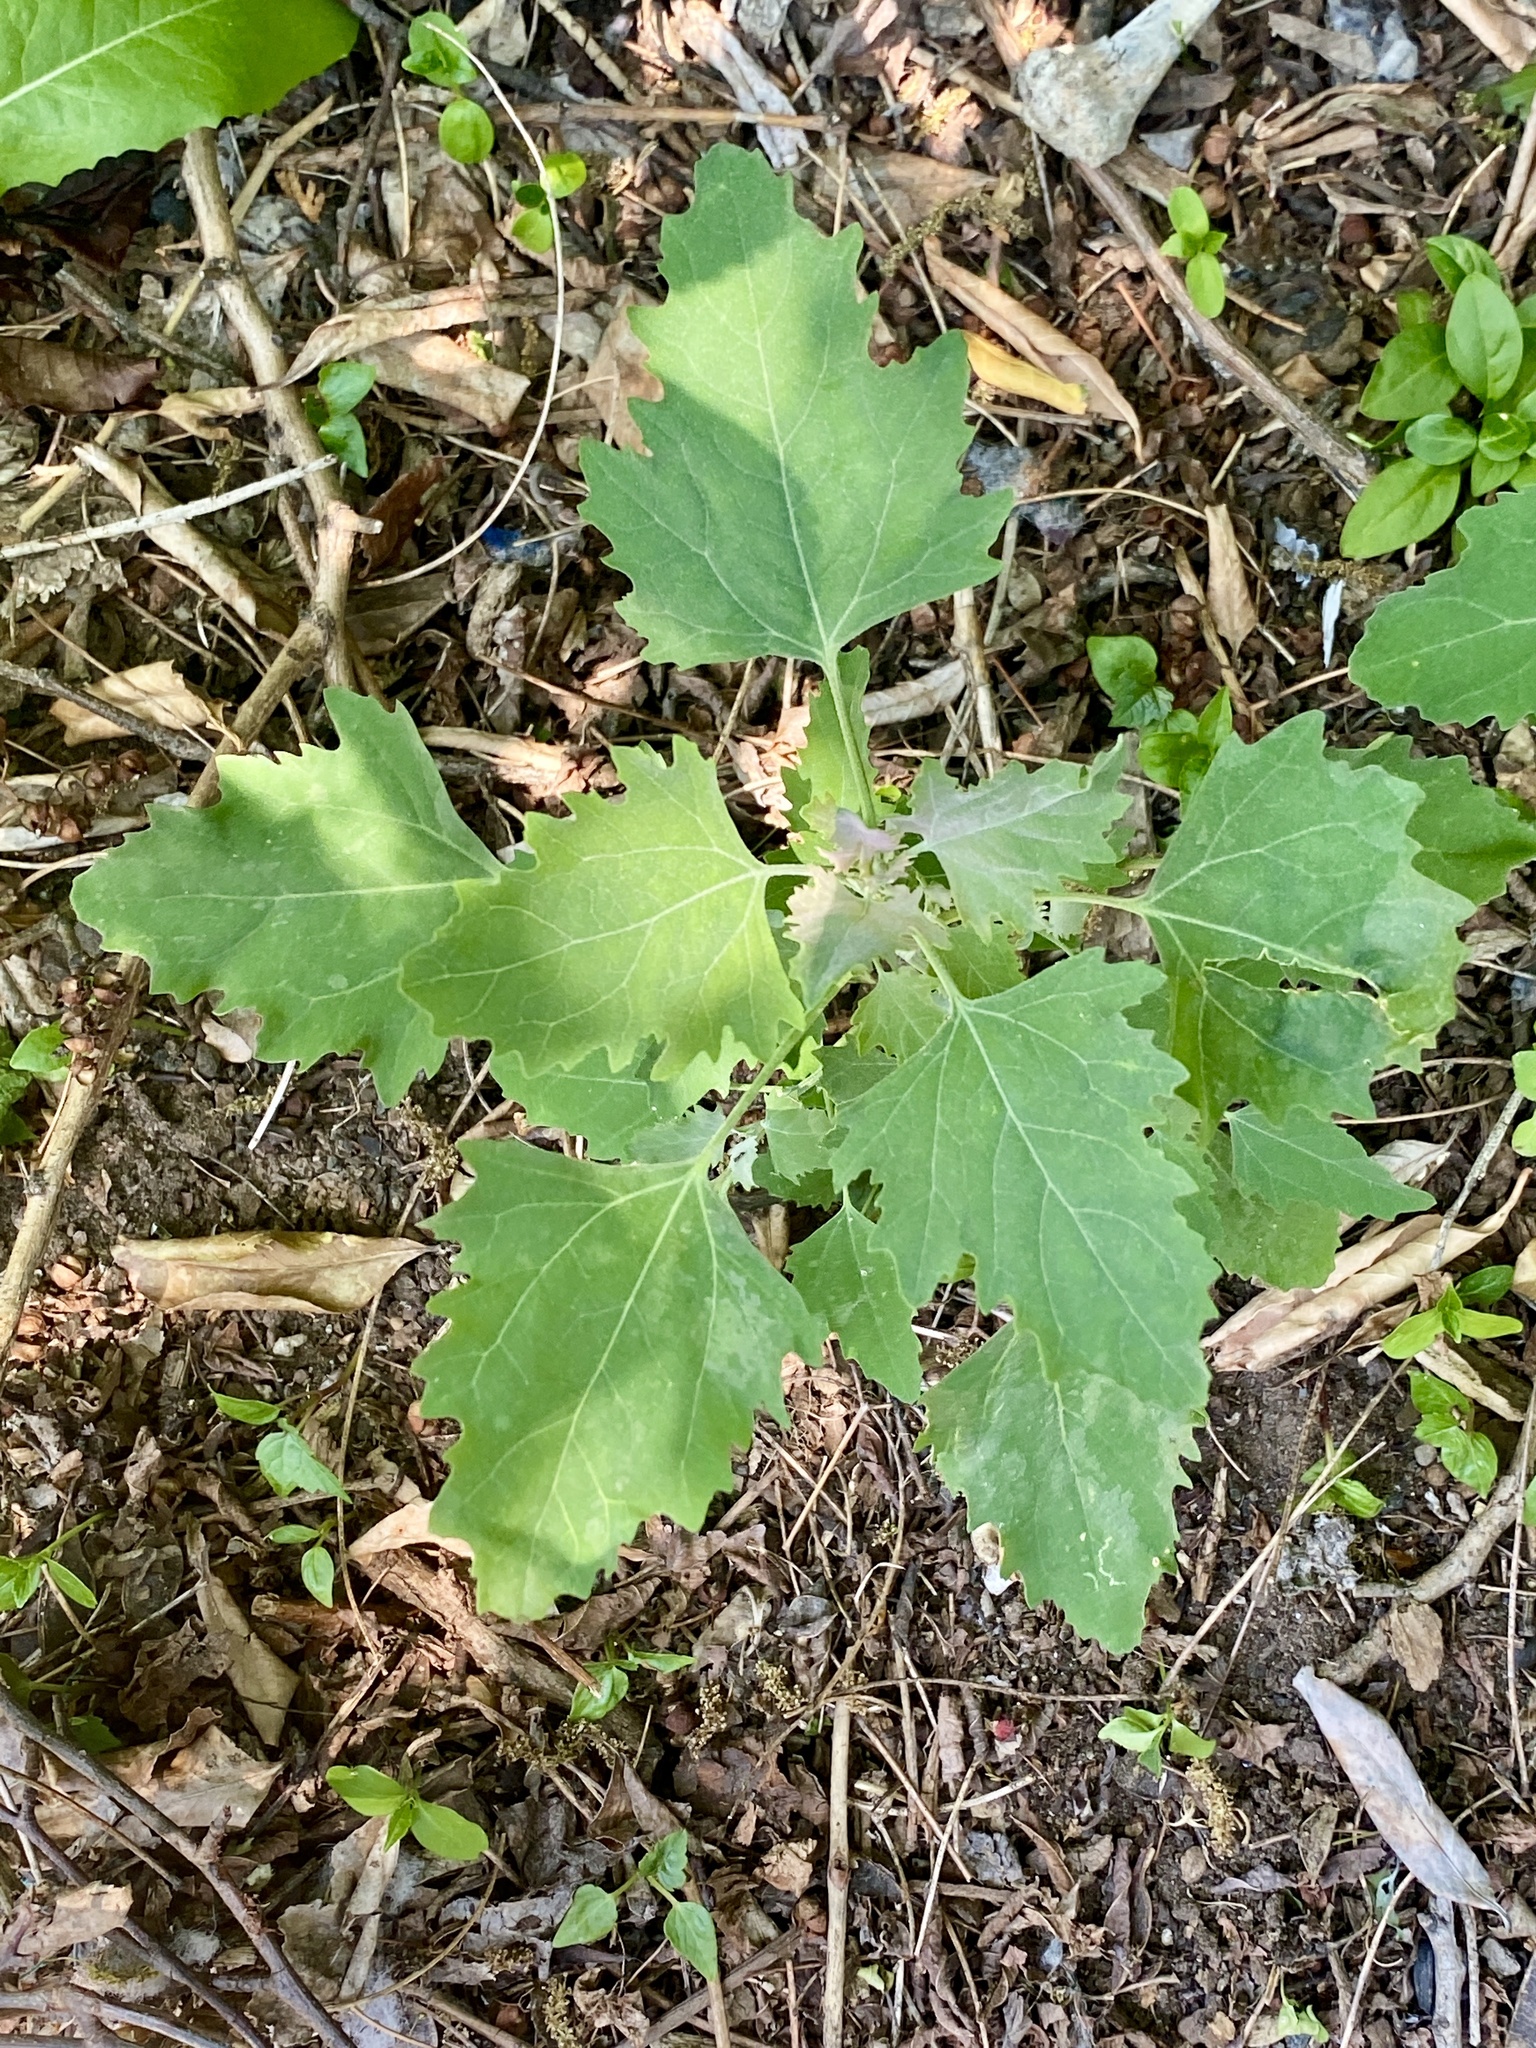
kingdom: Plantae
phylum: Tracheophyta
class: Magnoliopsida
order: Caryophyllales
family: Amaranthaceae
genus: Chenopodium
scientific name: Chenopodium album
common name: Fat-hen
